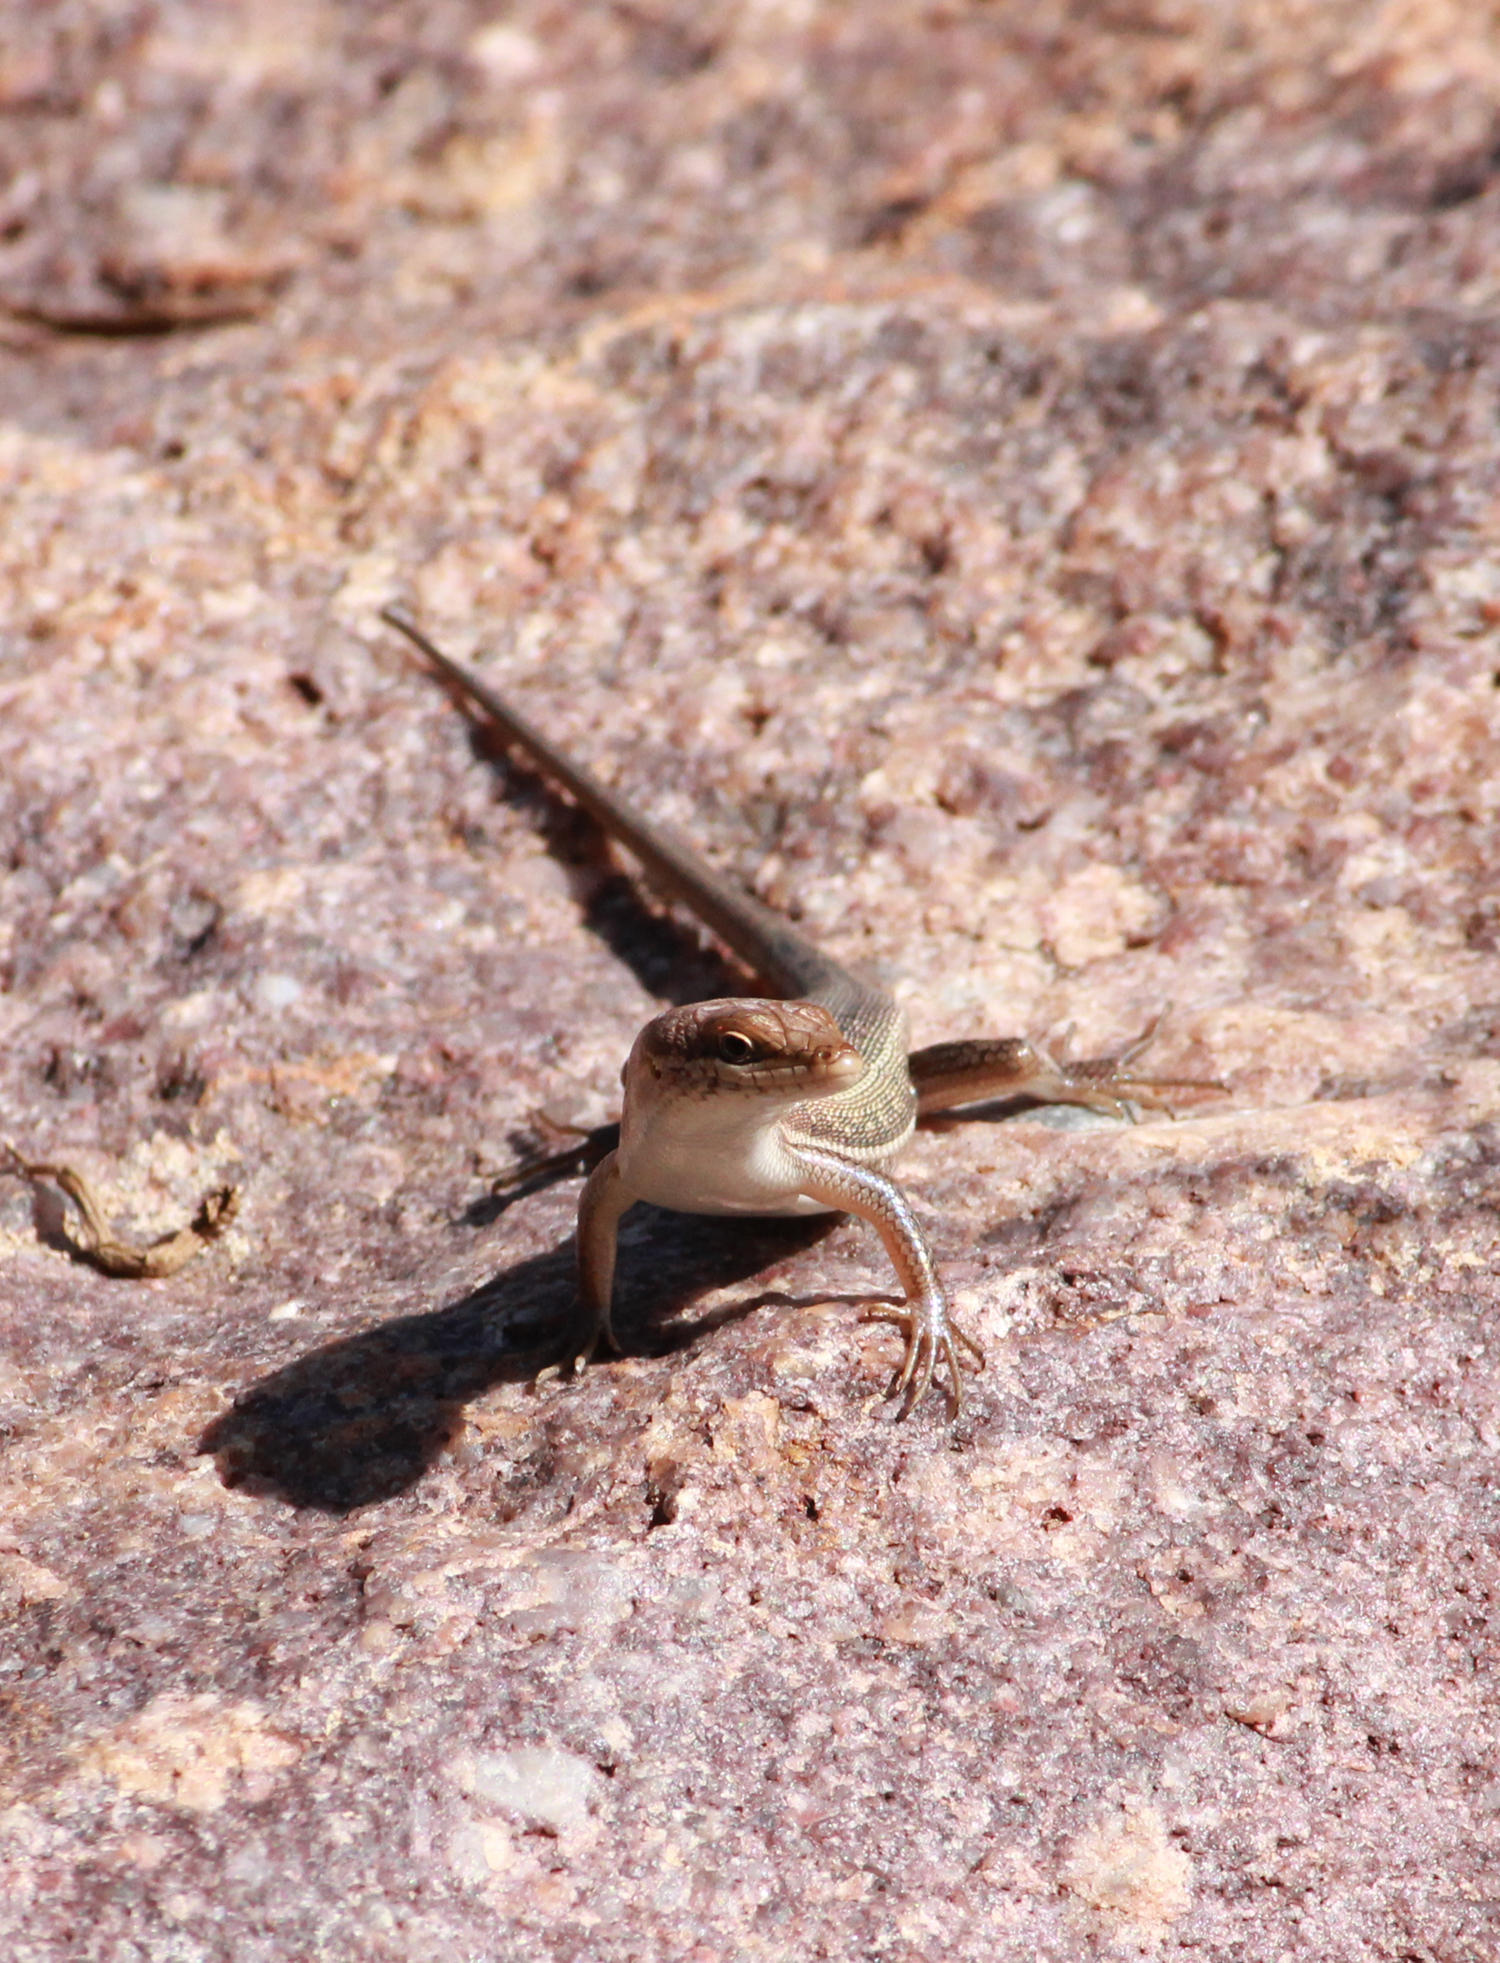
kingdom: Animalia
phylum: Chordata
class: Squamata
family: Scincidae
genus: Trachylepis
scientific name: Trachylepis varia
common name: Eastern variable skink
